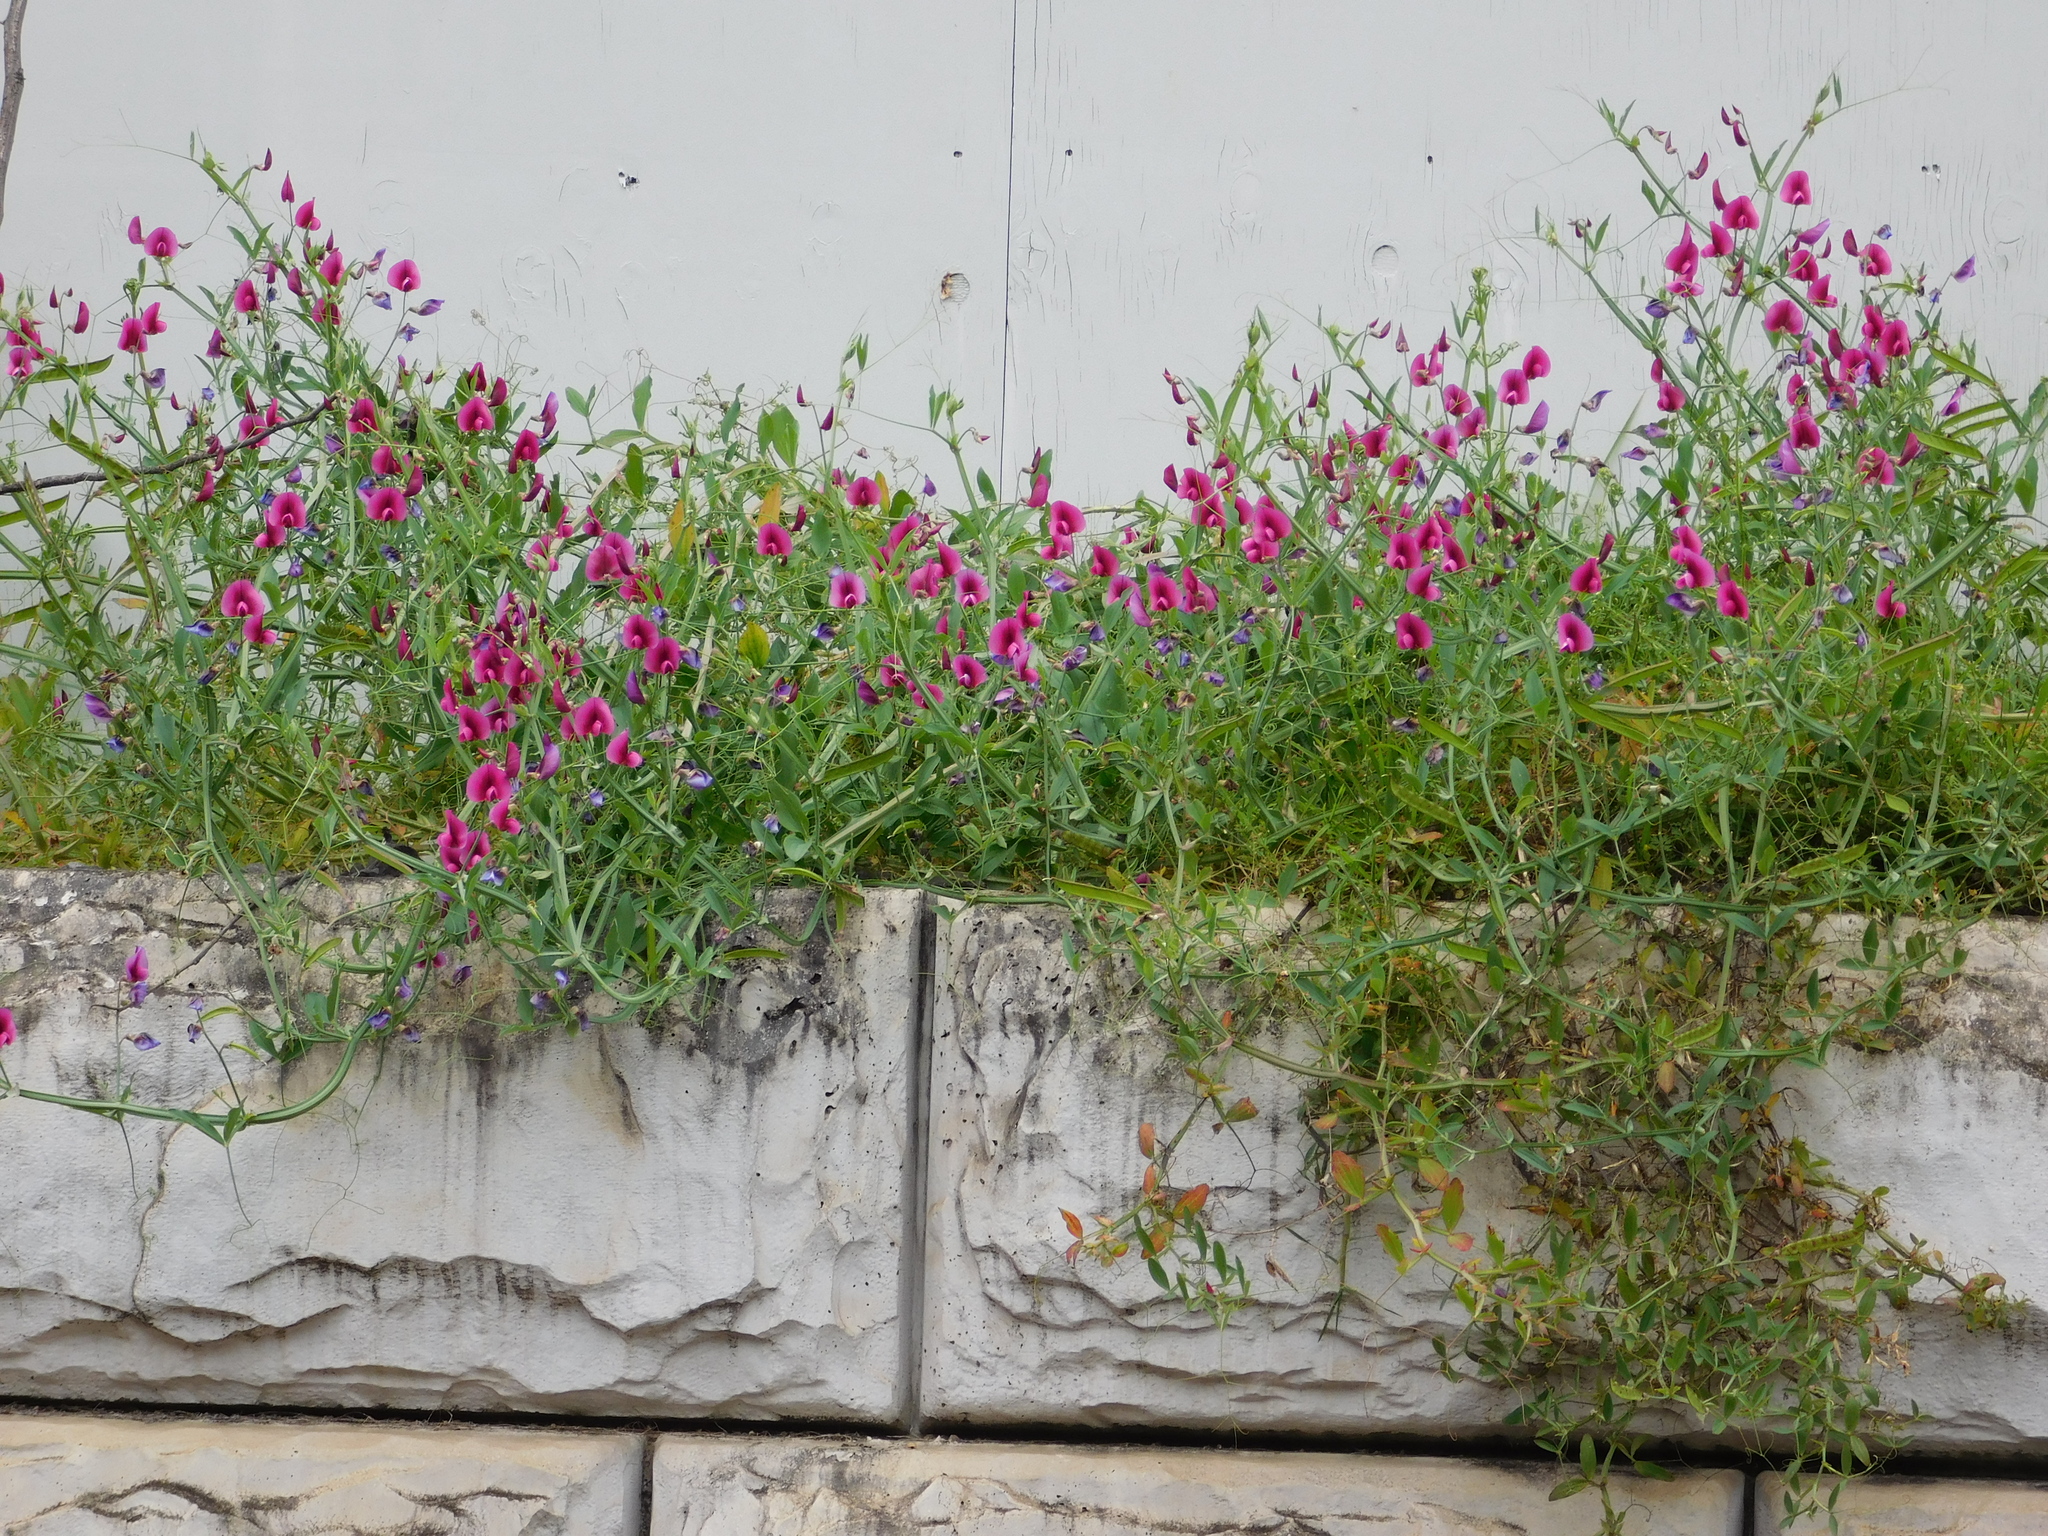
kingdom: Plantae
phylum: Tracheophyta
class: Magnoliopsida
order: Fabales
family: Fabaceae
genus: Lathyrus
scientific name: Lathyrus tingitanus
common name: Tangier pea
